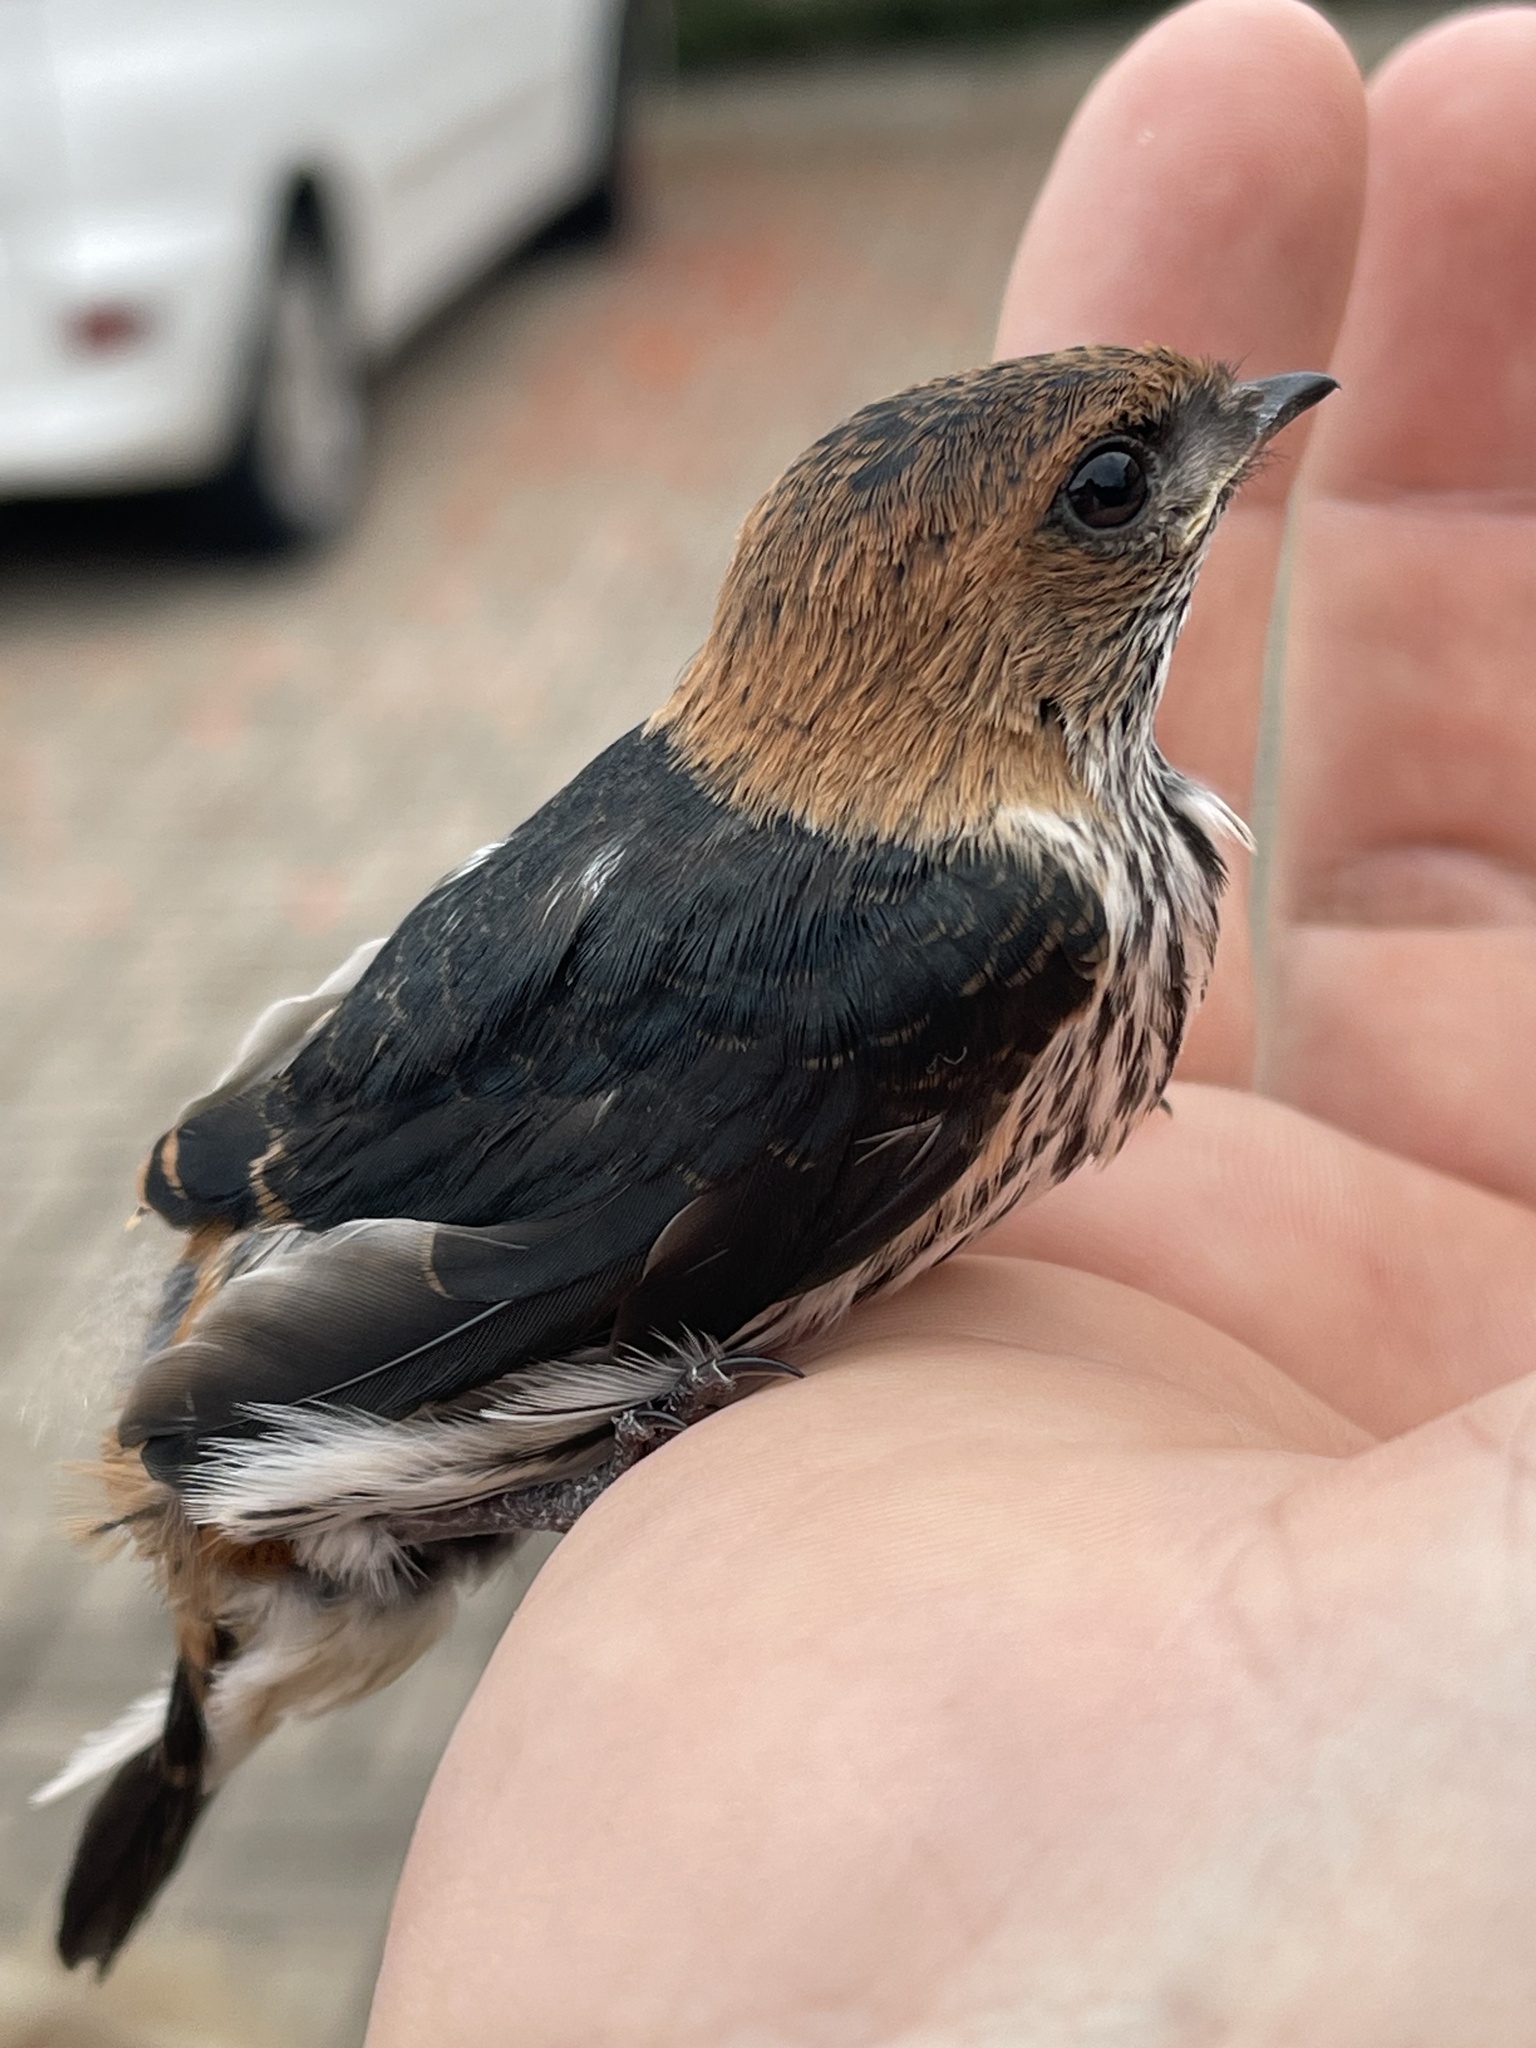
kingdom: Animalia
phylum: Chordata
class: Aves
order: Passeriformes
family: Hirundinidae
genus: Cecropis
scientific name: Cecropis abyssinica
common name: Lesser striped-swallow
